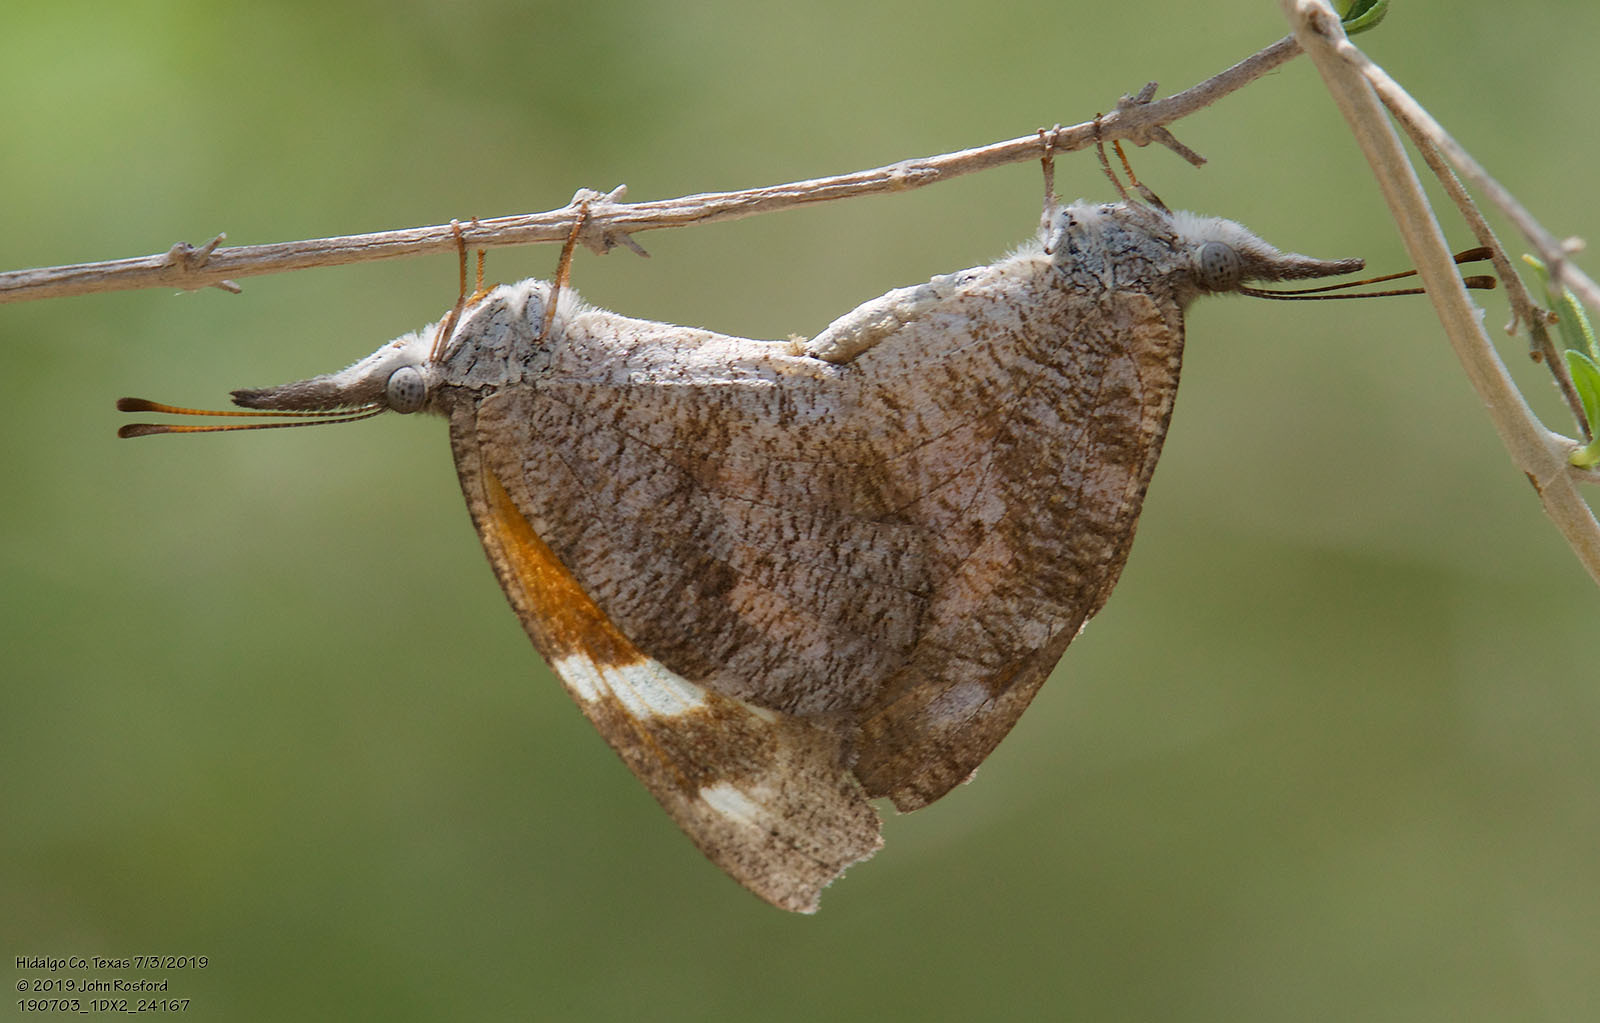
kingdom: Animalia
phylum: Arthropoda
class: Insecta
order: Lepidoptera
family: Nymphalidae
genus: Libytheana
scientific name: Libytheana carinenta
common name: American snout
